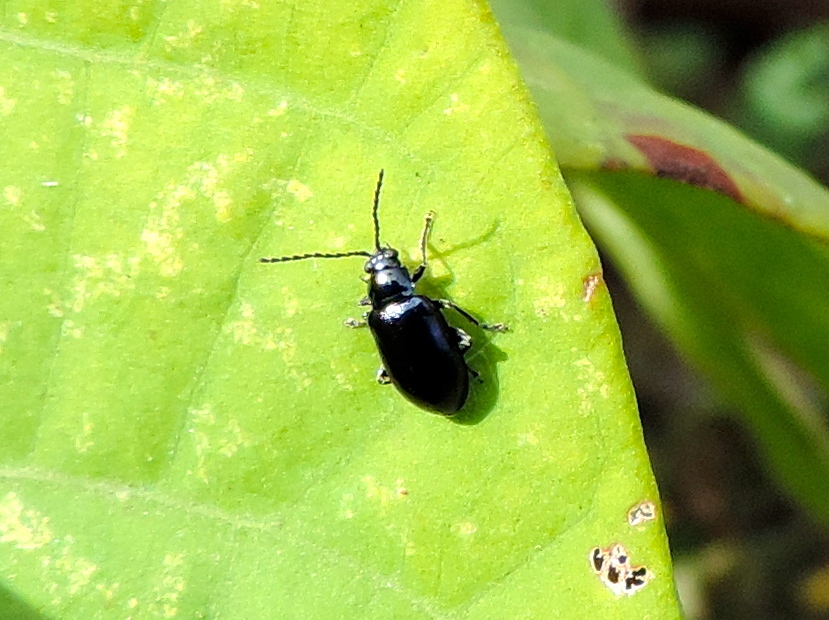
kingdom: Animalia
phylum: Arthropoda
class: Insecta
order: Coleoptera
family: Chrysomelidae
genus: Altica
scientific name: Altica
